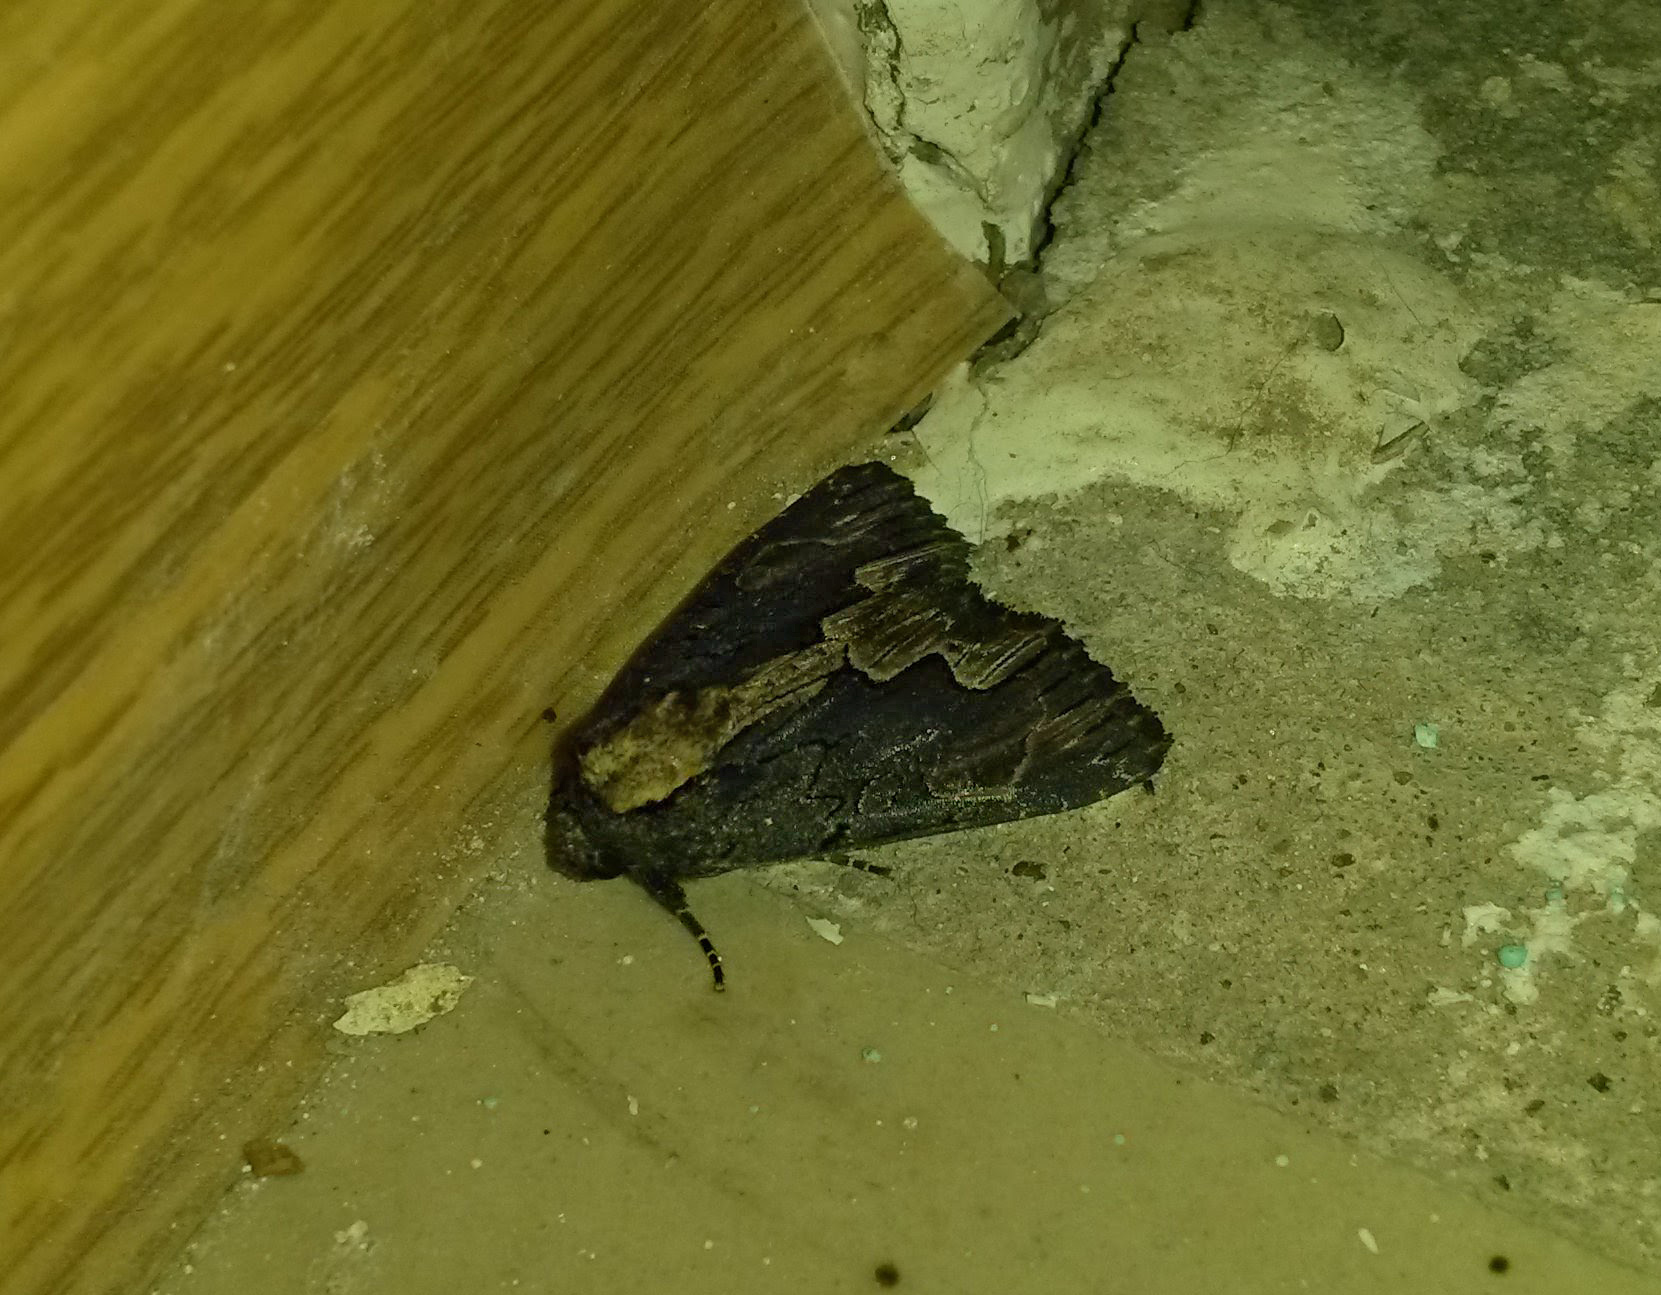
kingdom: Animalia
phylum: Arthropoda
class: Insecta
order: Lepidoptera
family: Noctuidae
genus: Dypterygia
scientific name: Dypterygia scabriuscula
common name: Bird's wing
